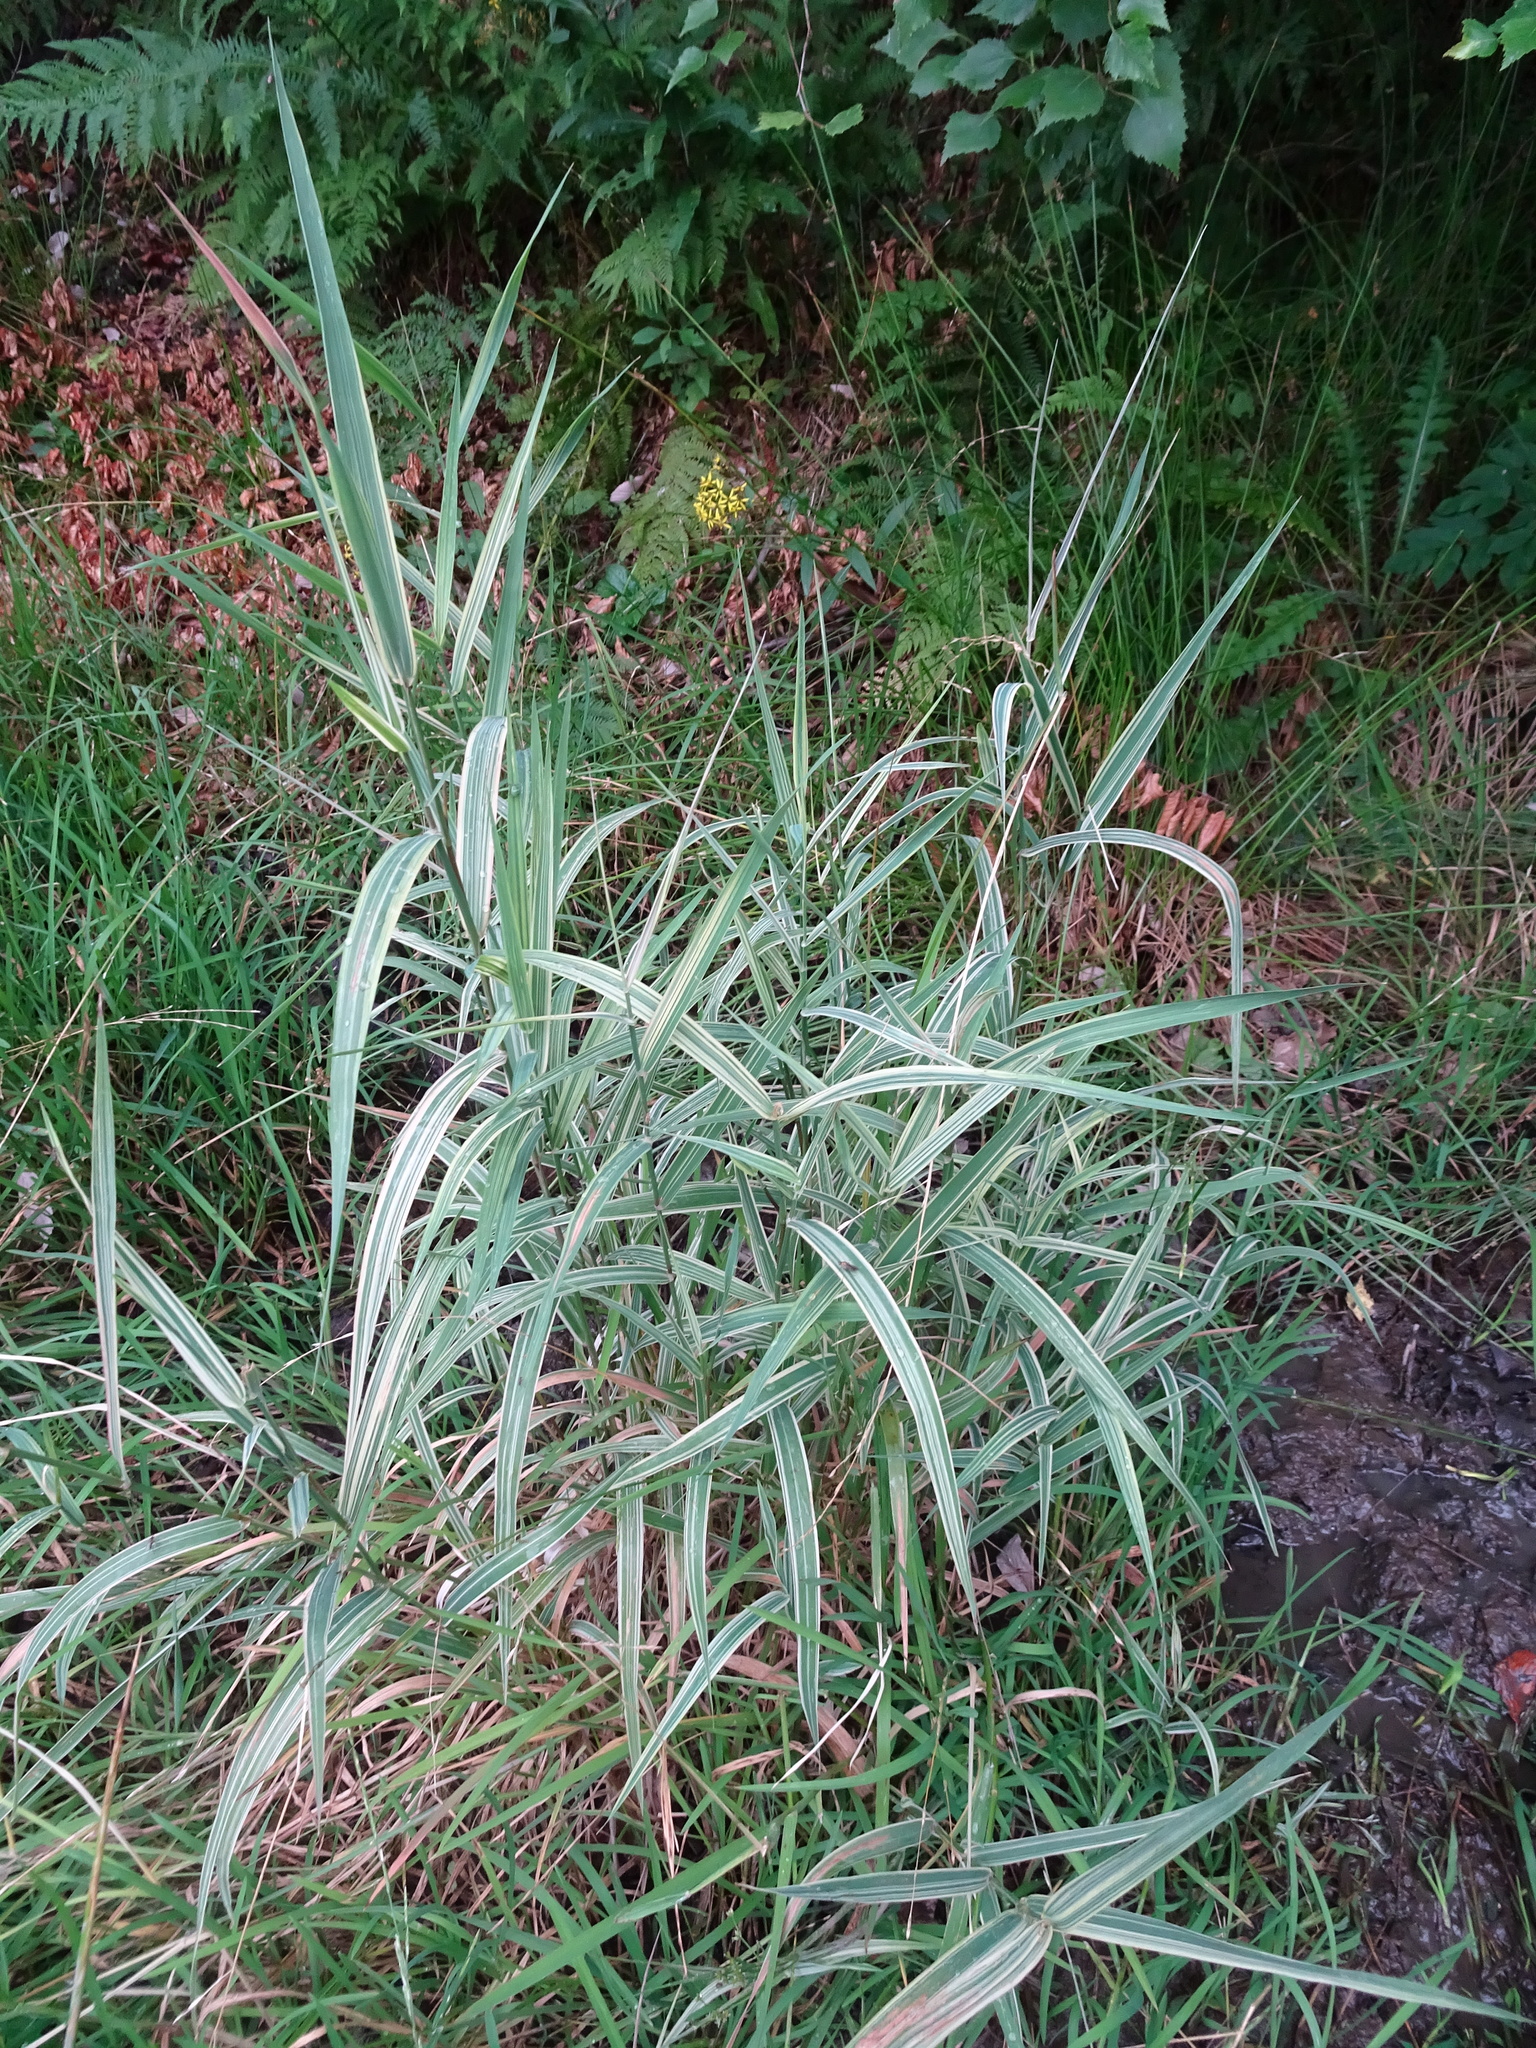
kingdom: Plantae
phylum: Tracheophyta
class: Liliopsida
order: Poales
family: Poaceae
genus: Phalaris
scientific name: Phalaris arundinacea
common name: Reed canary-grass
